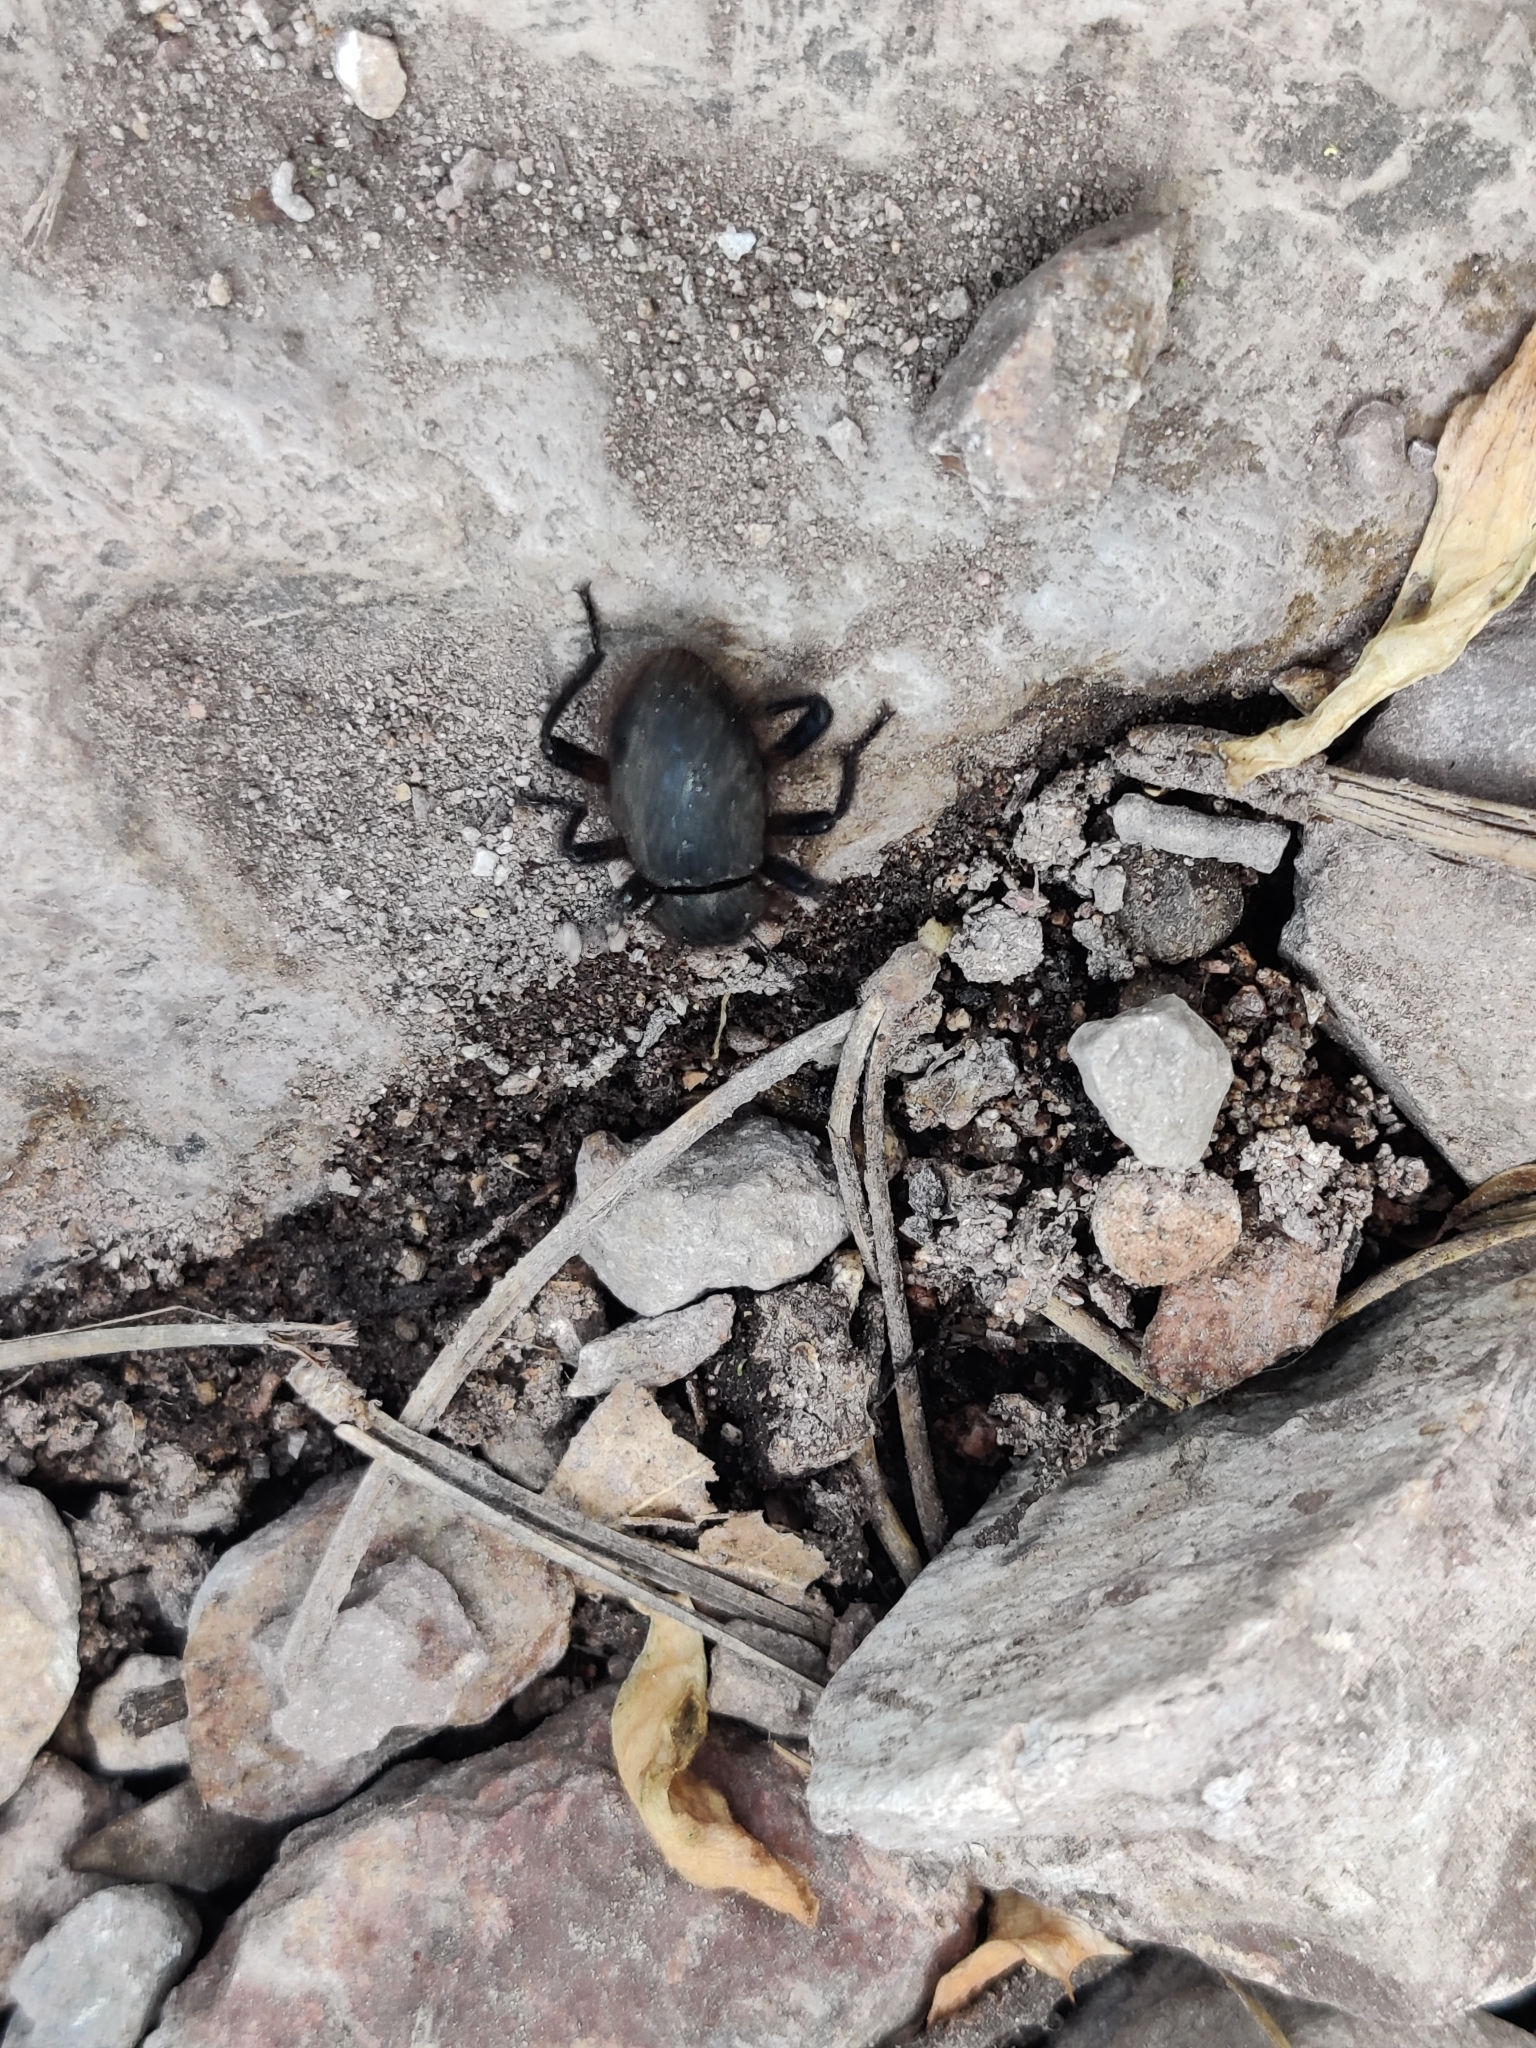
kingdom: Animalia
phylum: Arthropoda
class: Insecta
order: Coleoptera
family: Tenebrionidae
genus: Eleodes
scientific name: Eleodes osculans
